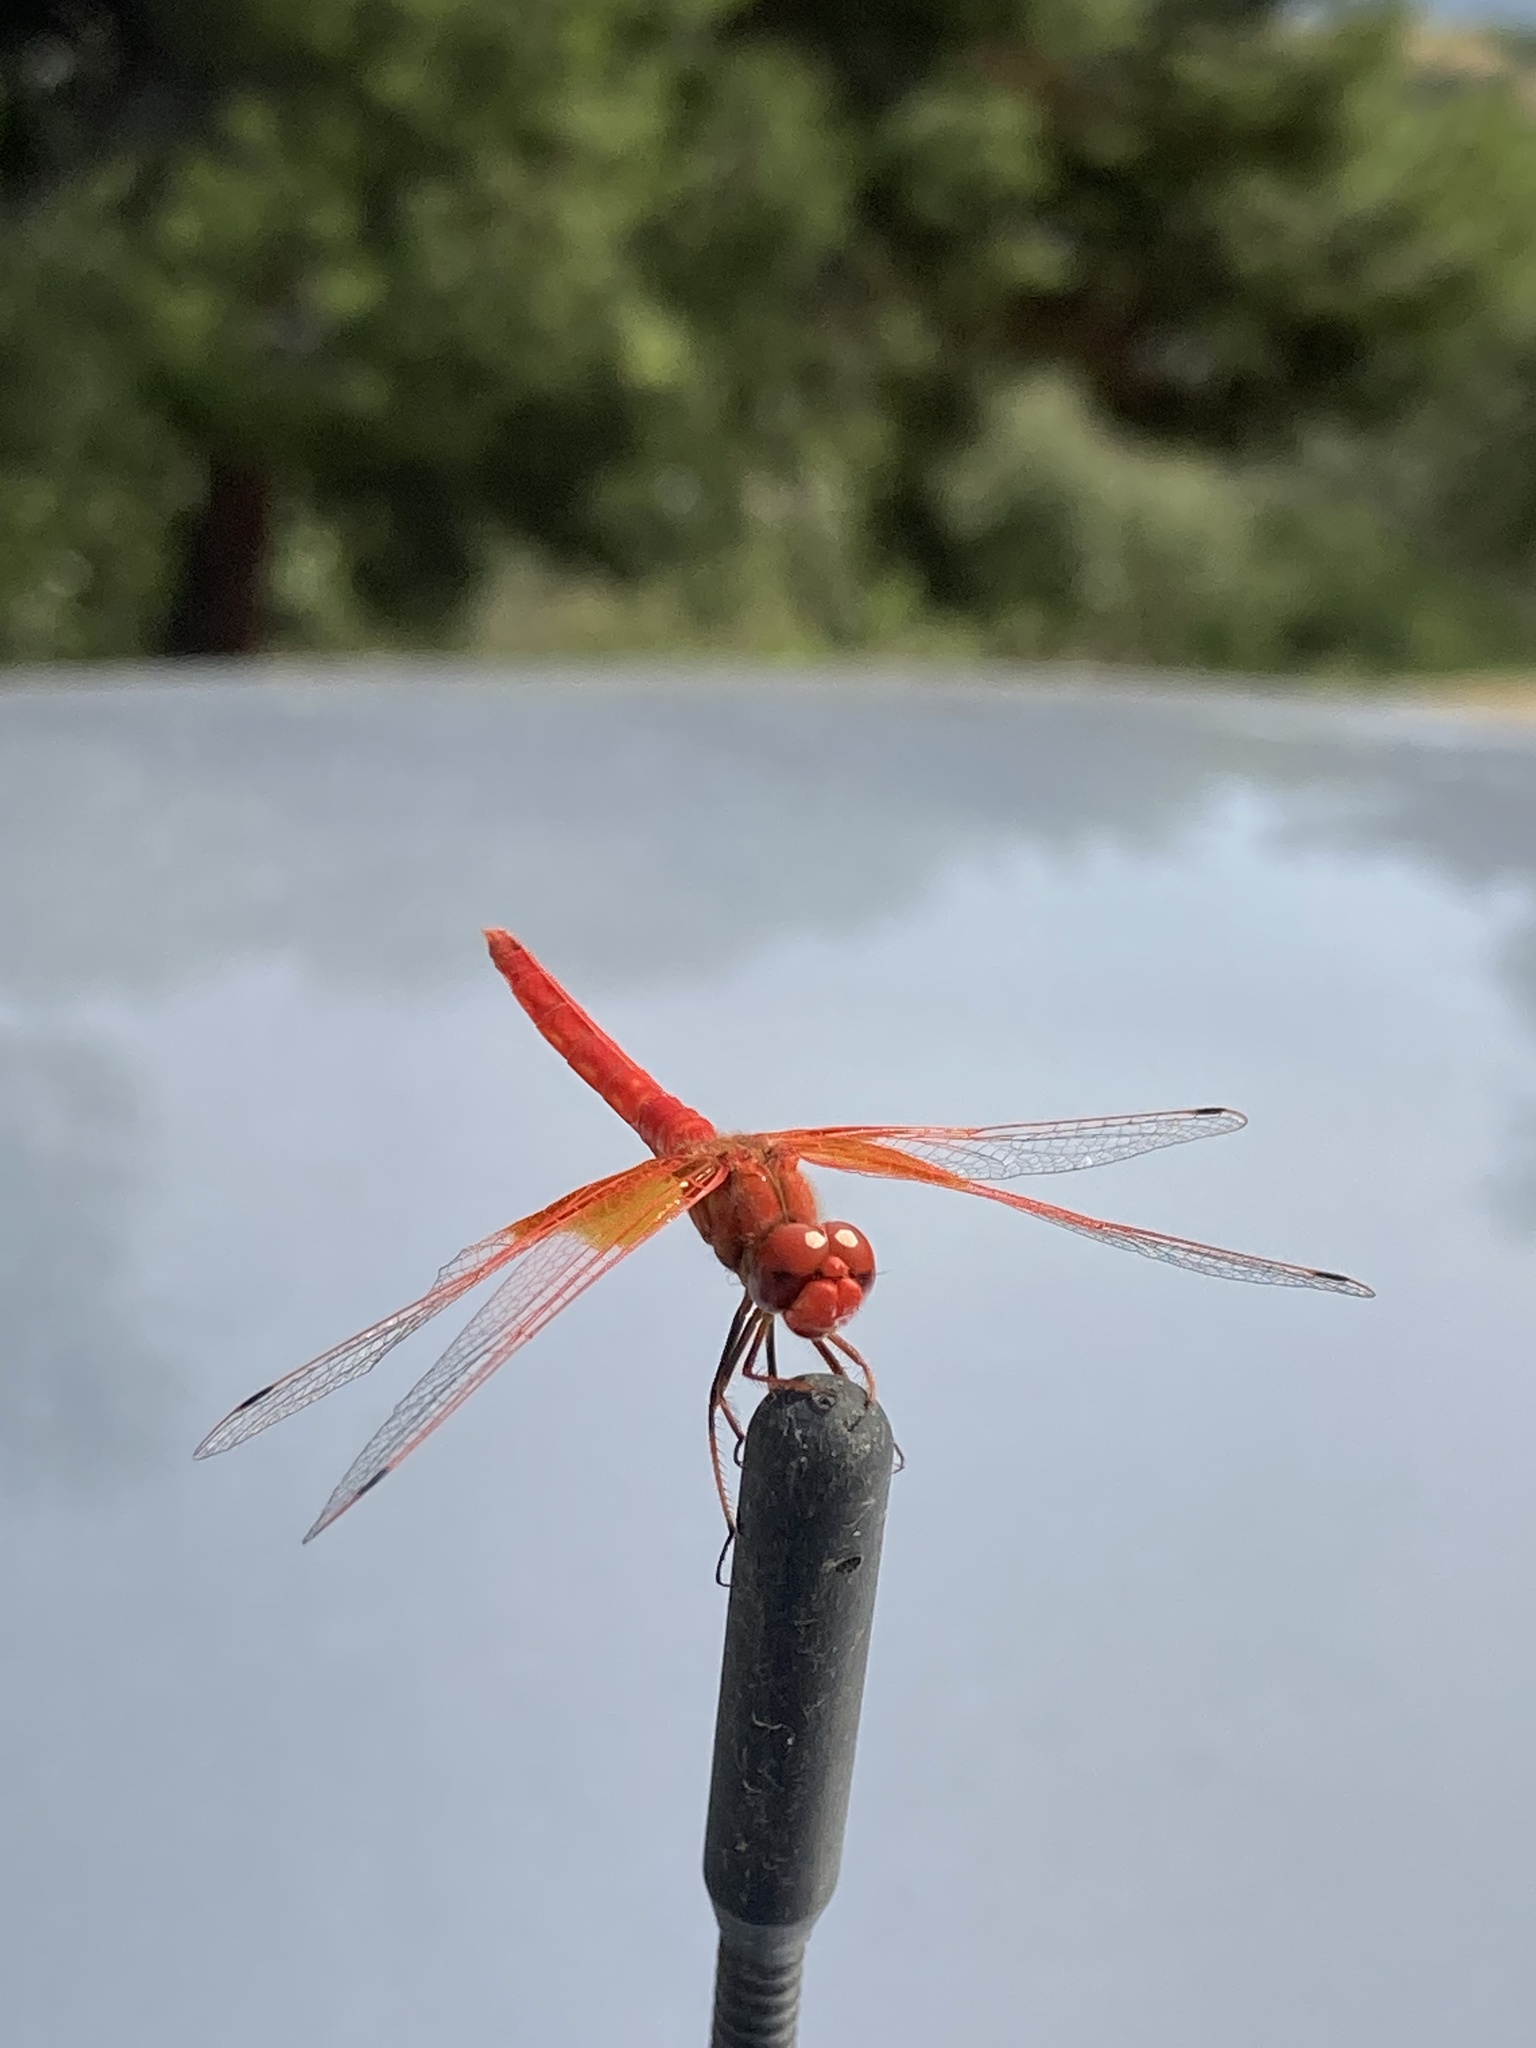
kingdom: Animalia
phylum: Arthropoda
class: Insecta
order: Odonata
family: Libellulidae
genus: Trithemis
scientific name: Trithemis kirbyi
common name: Kirby's dropwing
